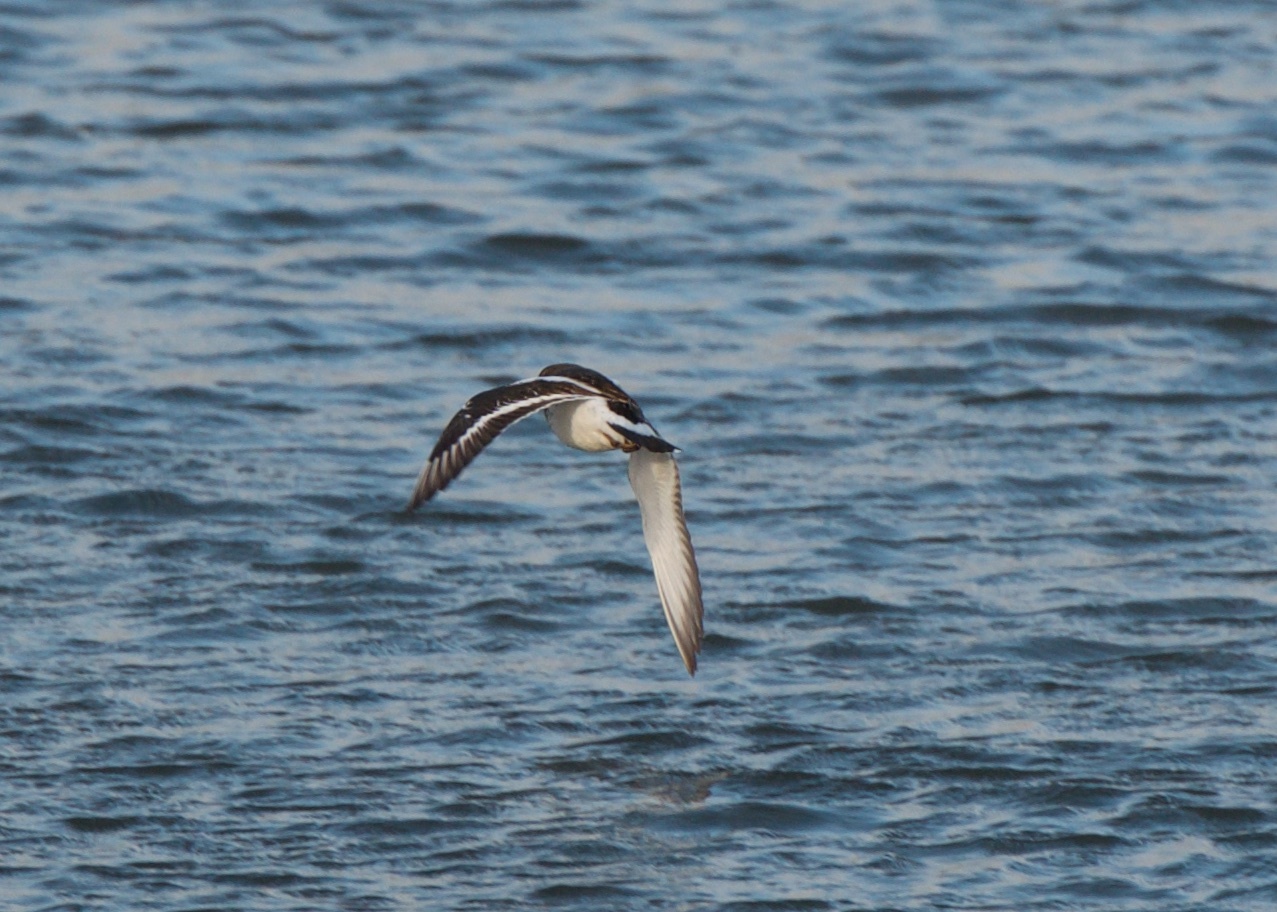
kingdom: Animalia
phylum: Chordata
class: Aves
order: Charadriiformes
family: Scolopacidae
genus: Arenaria
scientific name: Arenaria melanocephala
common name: Black turnstone
